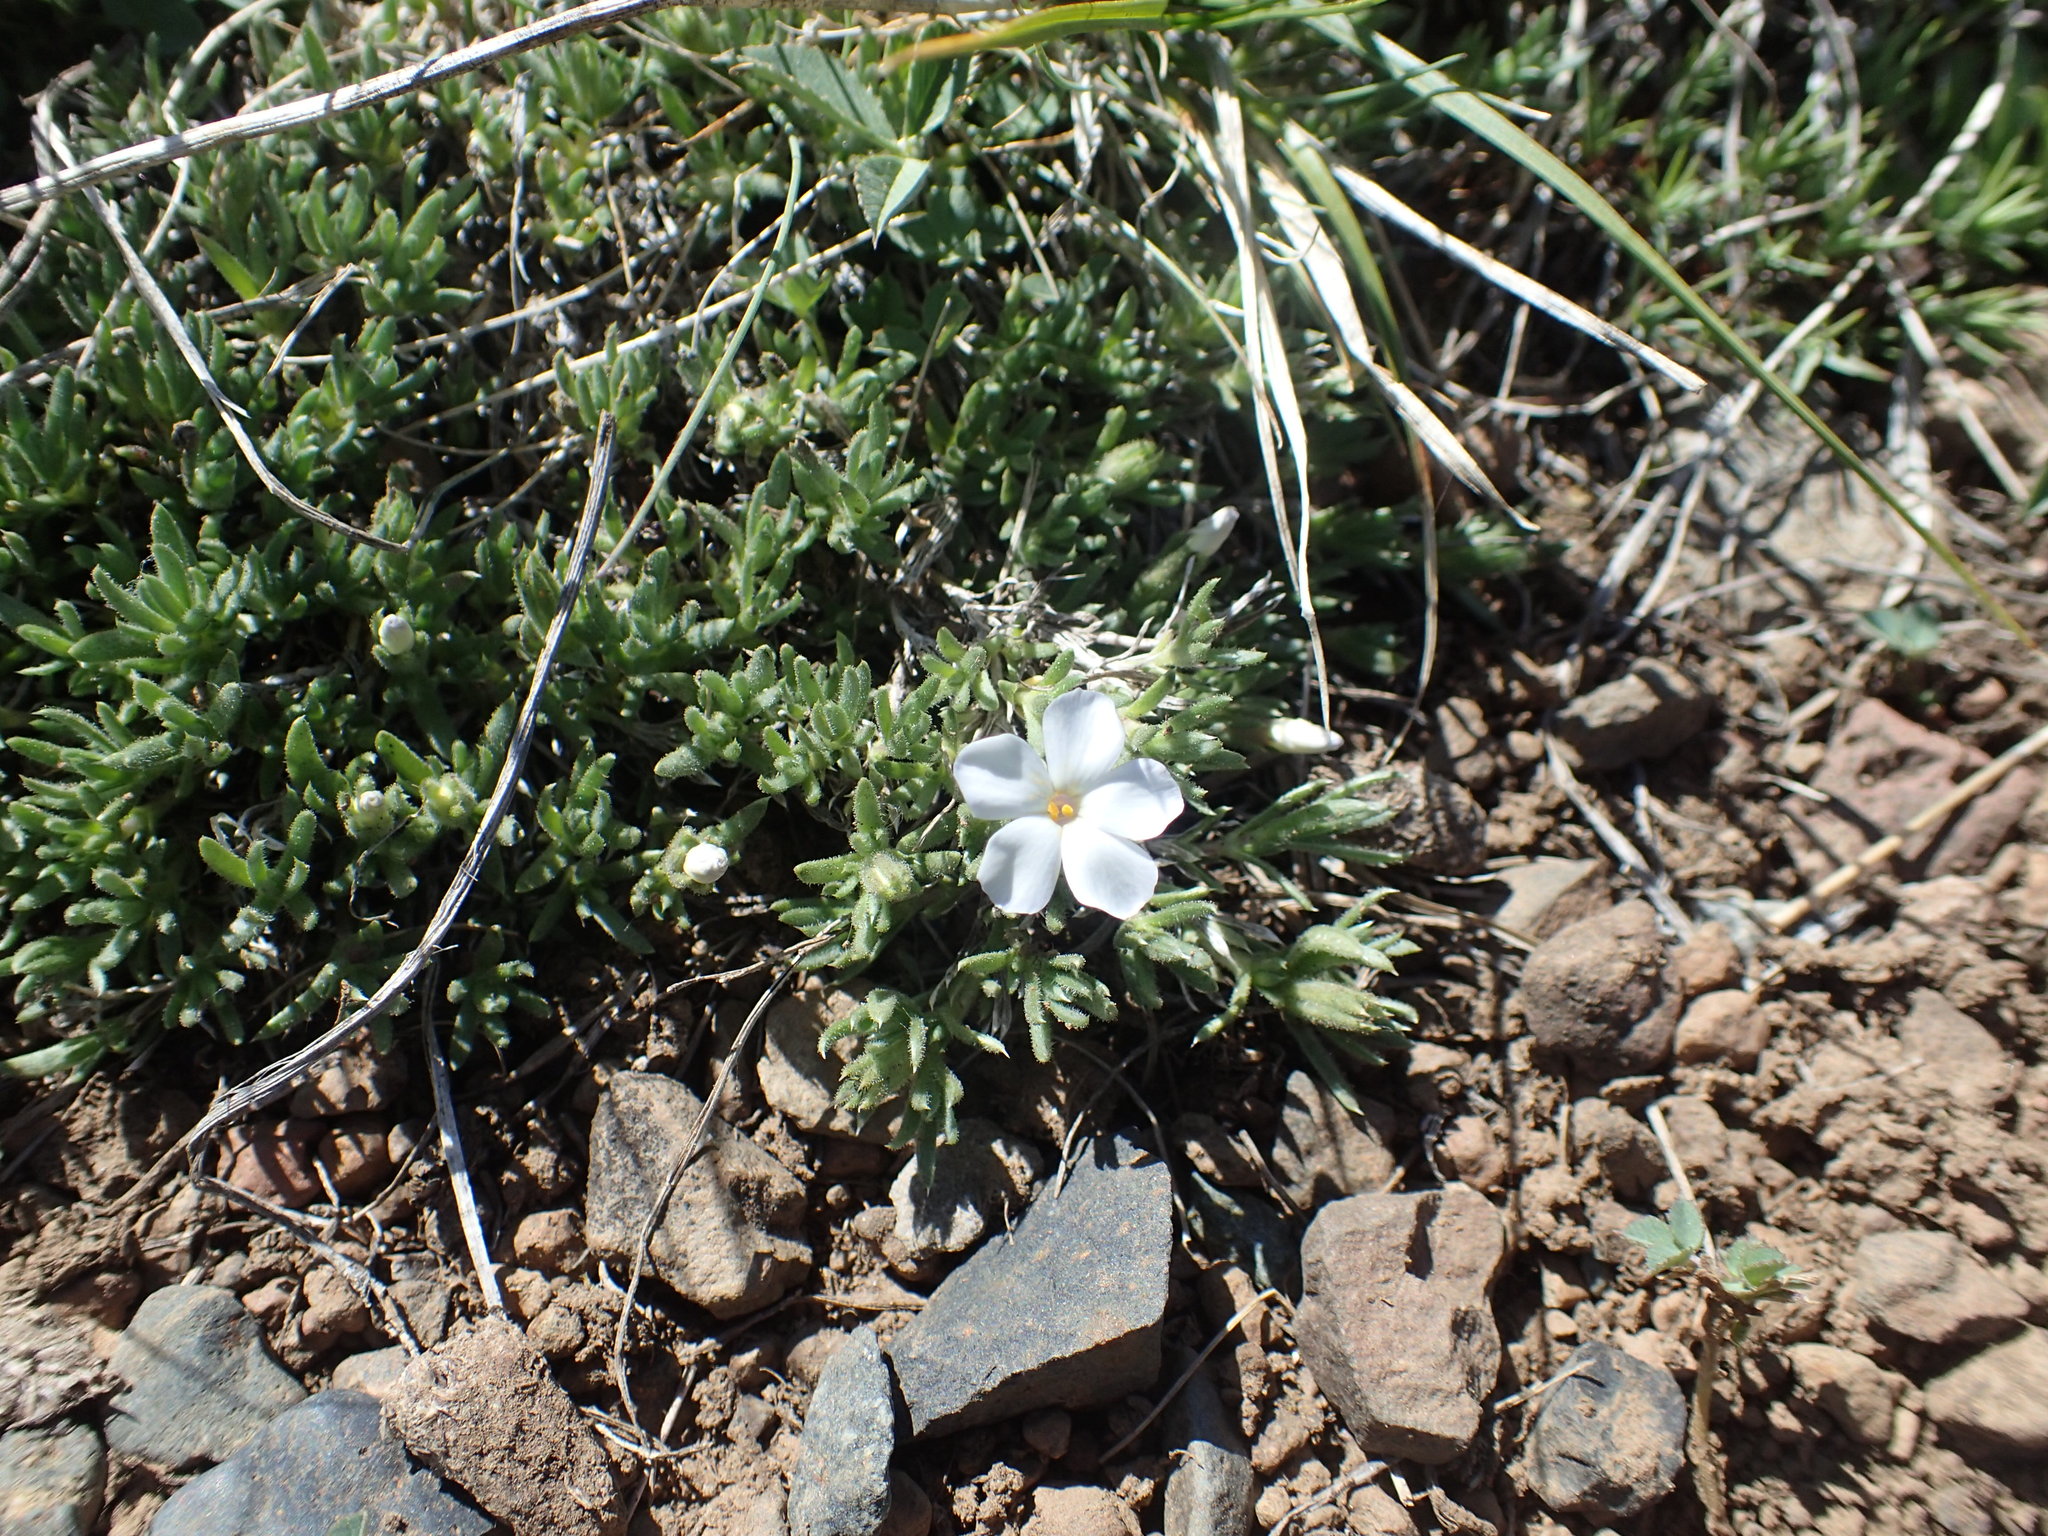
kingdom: Plantae
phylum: Tracheophyta
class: Magnoliopsida
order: Ericales
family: Polemoniaceae
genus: Phlox
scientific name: Phlox pulvinata
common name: Cushion phlox
